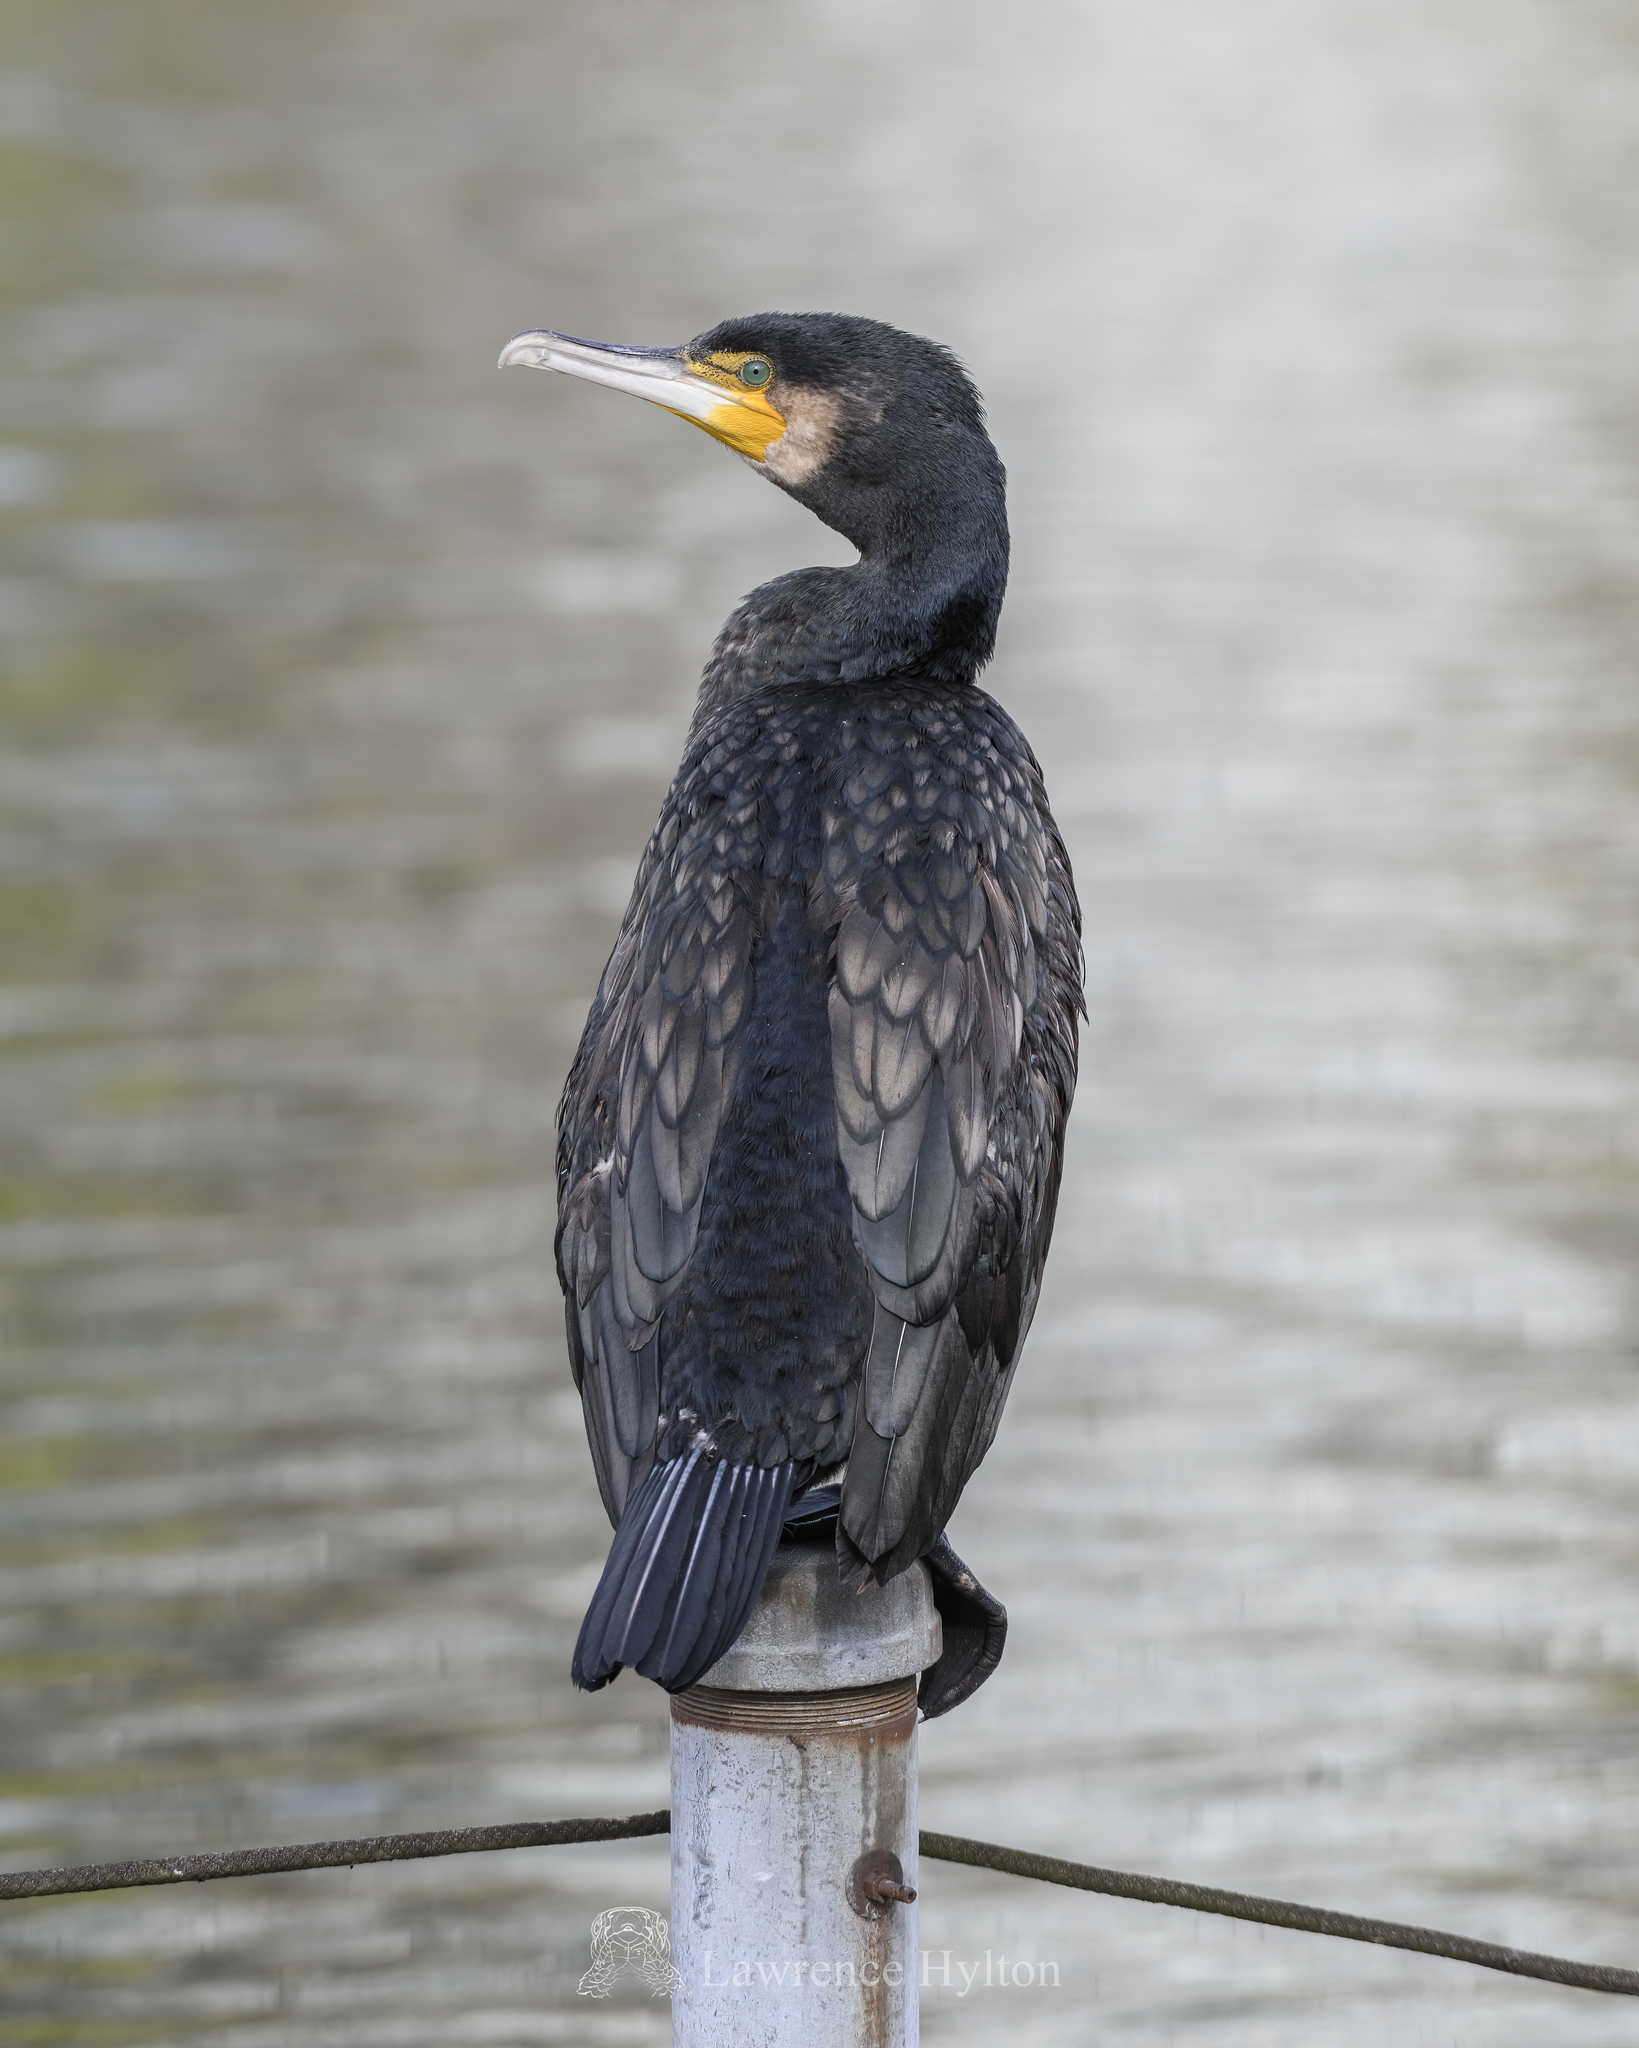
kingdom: Animalia
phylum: Chordata
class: Aves
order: Suliformes
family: Phalacrocoracidae
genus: Phalacrocorax
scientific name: Phalacrocorax carbo
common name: Great cormorant
